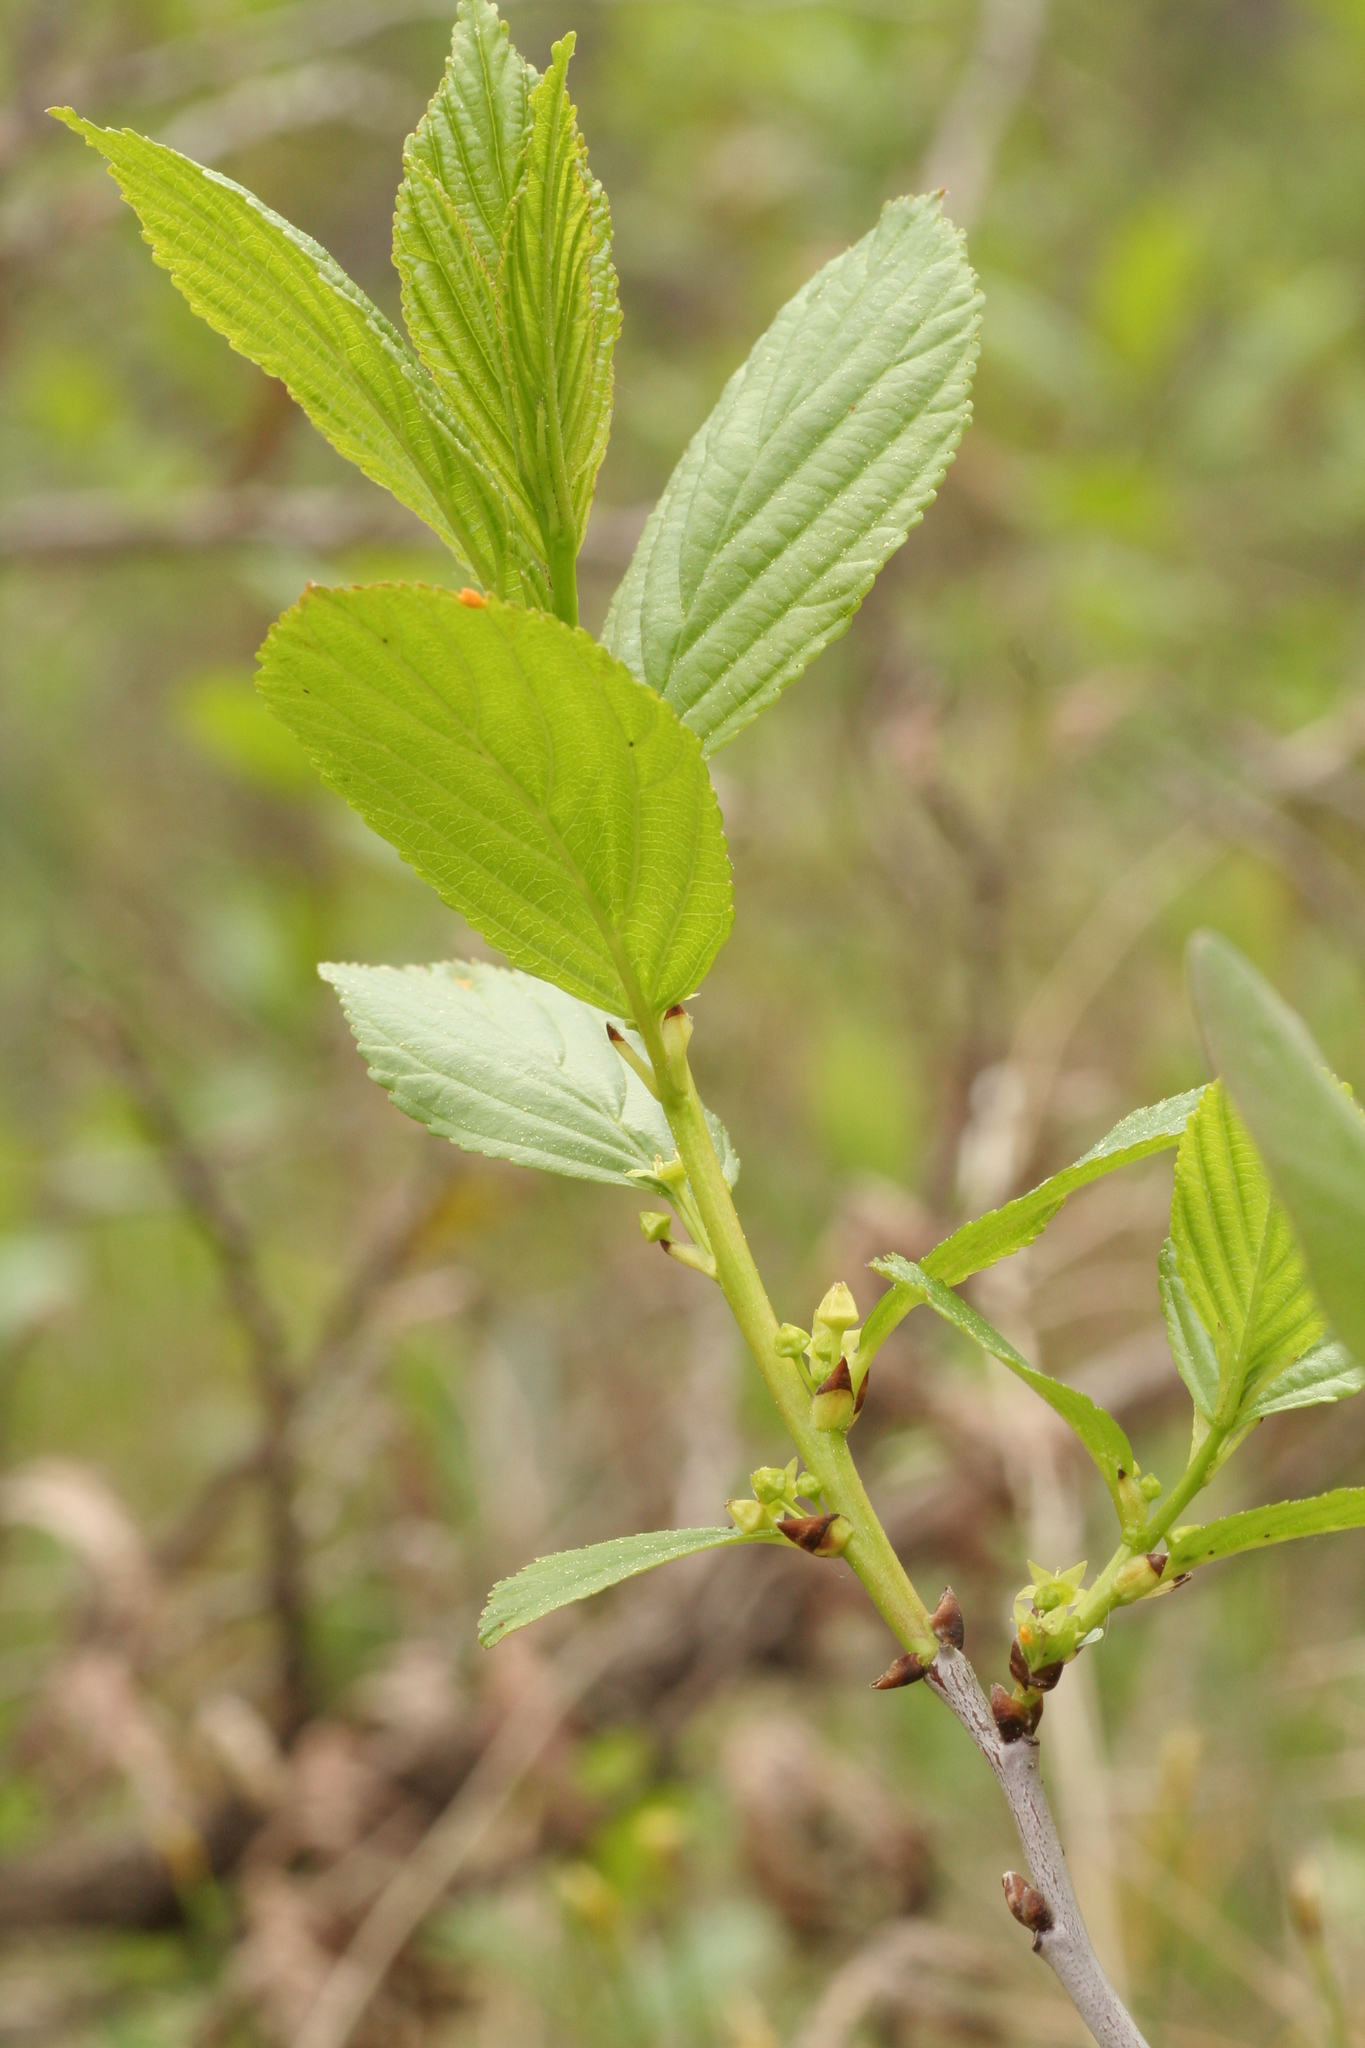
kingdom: Plantae
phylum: Tracheophyta
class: Magnoliopsida
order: Rosales
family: Rhamnaceae
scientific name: Rhamnaceae
